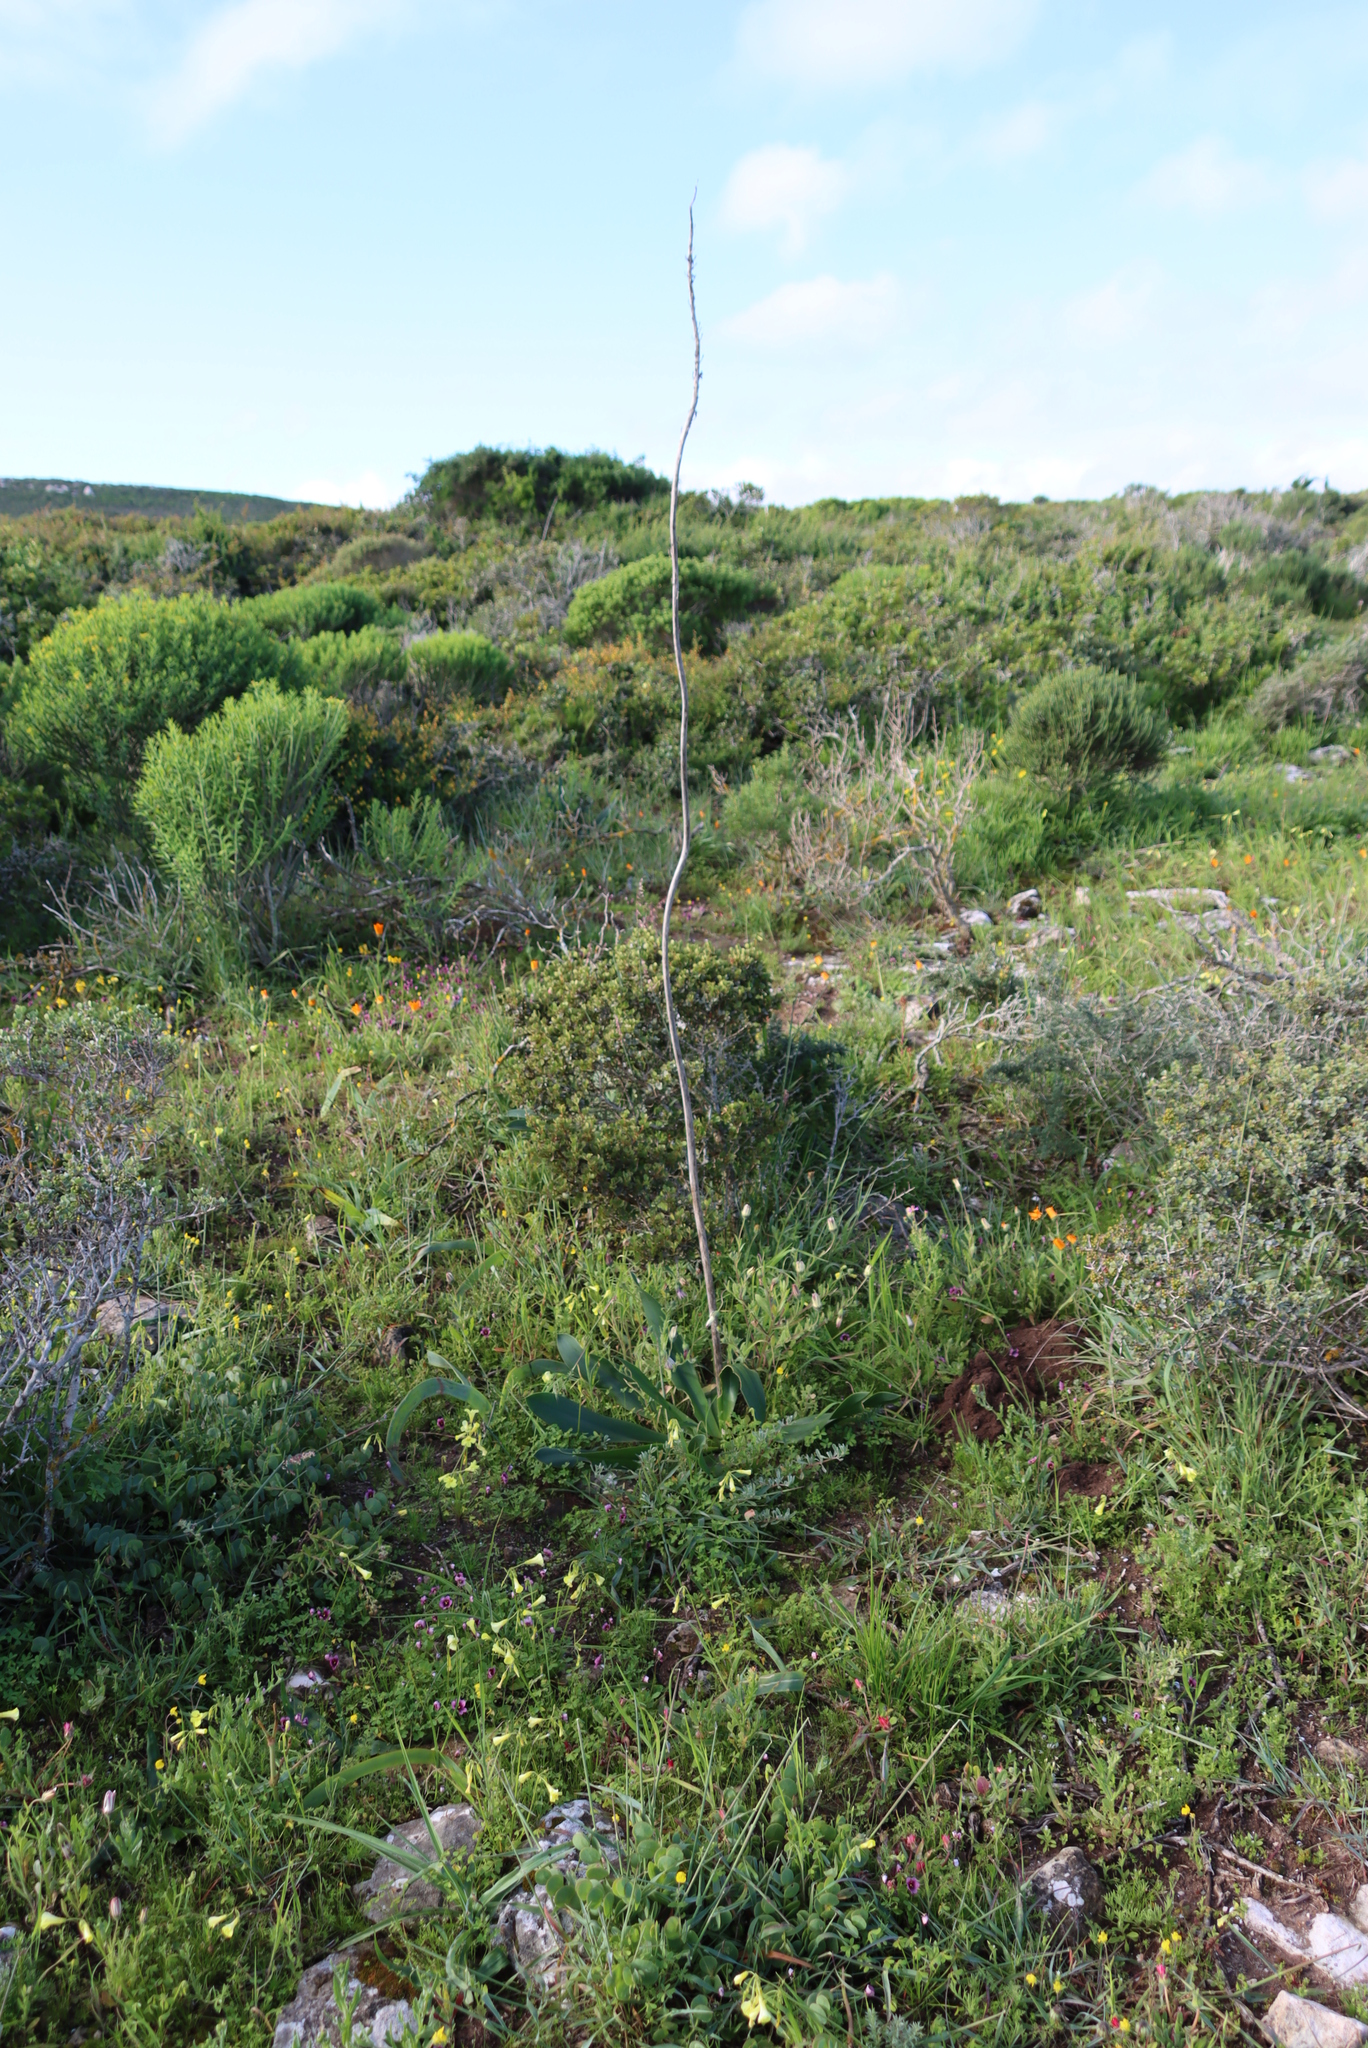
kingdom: Plantae
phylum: Tracheophyta
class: Liliopsida
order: Asparagales
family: Asparagaceae
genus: Drimia
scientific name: Drimia capensis
